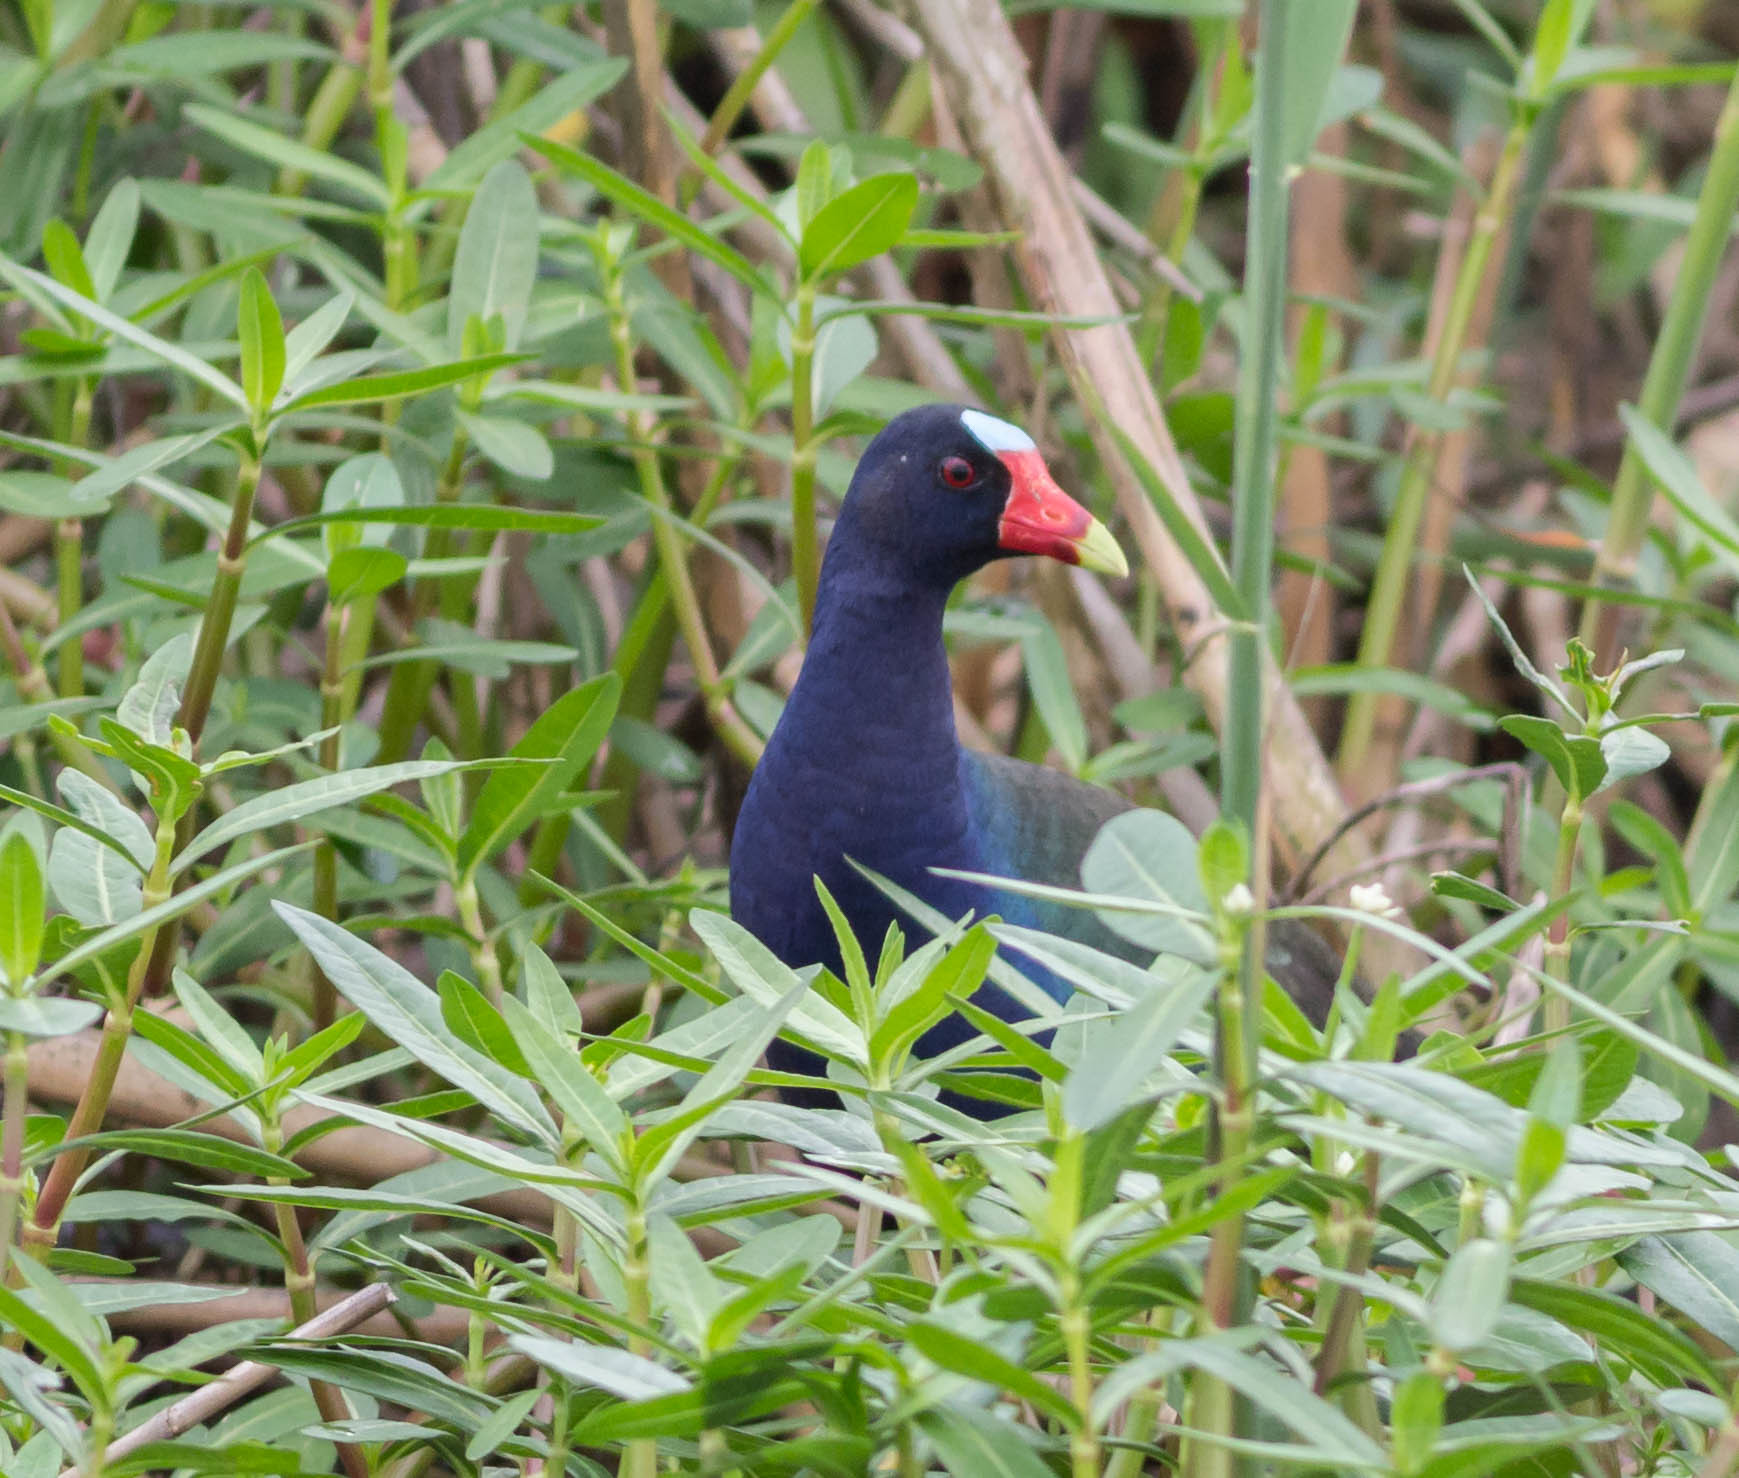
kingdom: Animalia
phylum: Chordata
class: Aves
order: Gruiformes
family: Rallidae
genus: Porphyrio
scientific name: Porphyrio martinica
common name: Purple gallinule
